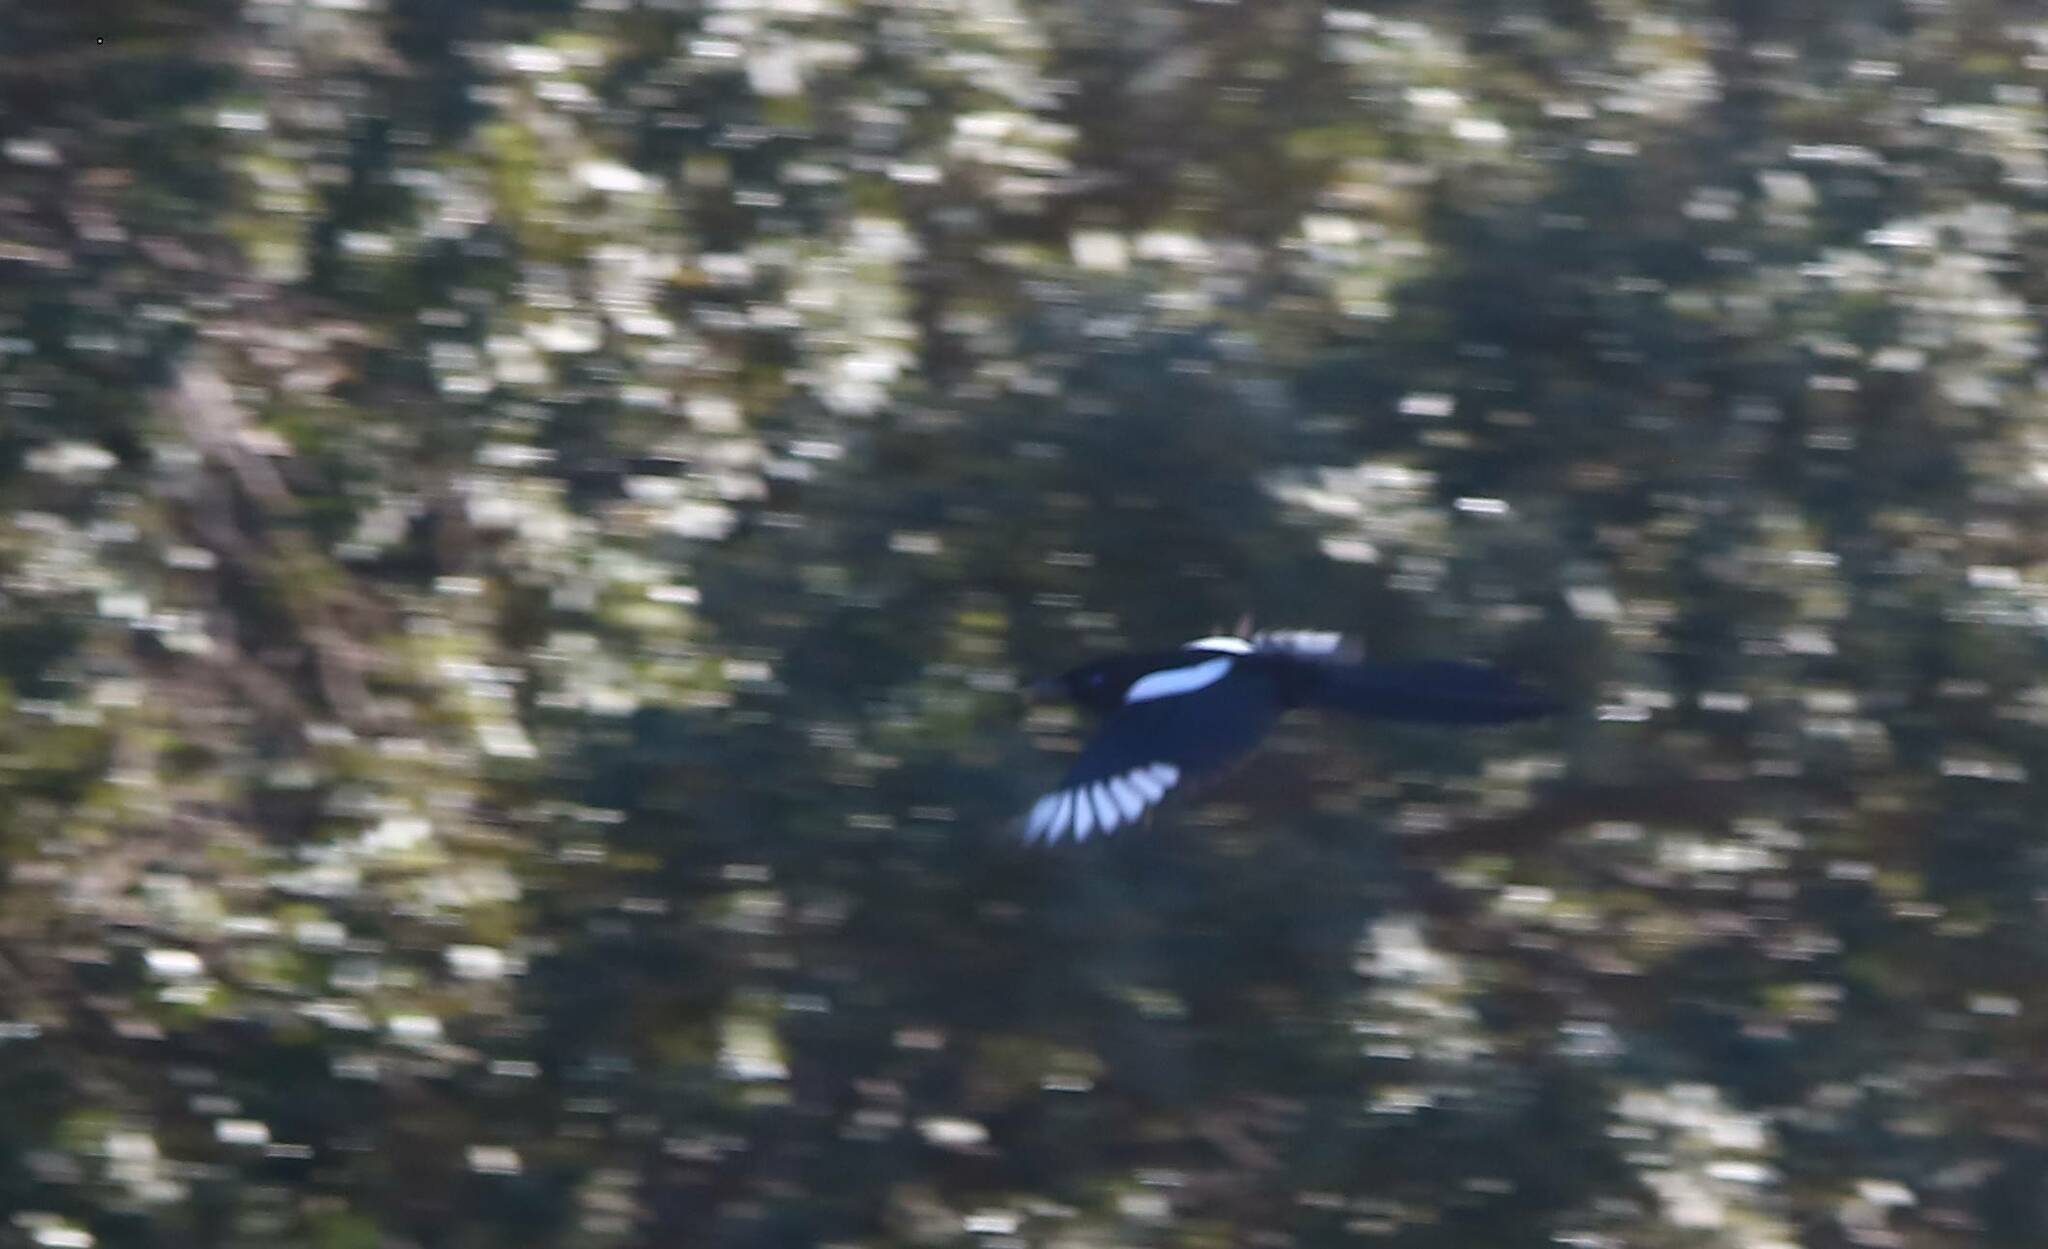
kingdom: Animalia
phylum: Chordata
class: Aves
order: Passeriformes
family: Corvidae
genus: Pica
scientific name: Pica mauritanica
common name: Maghreb magpie
